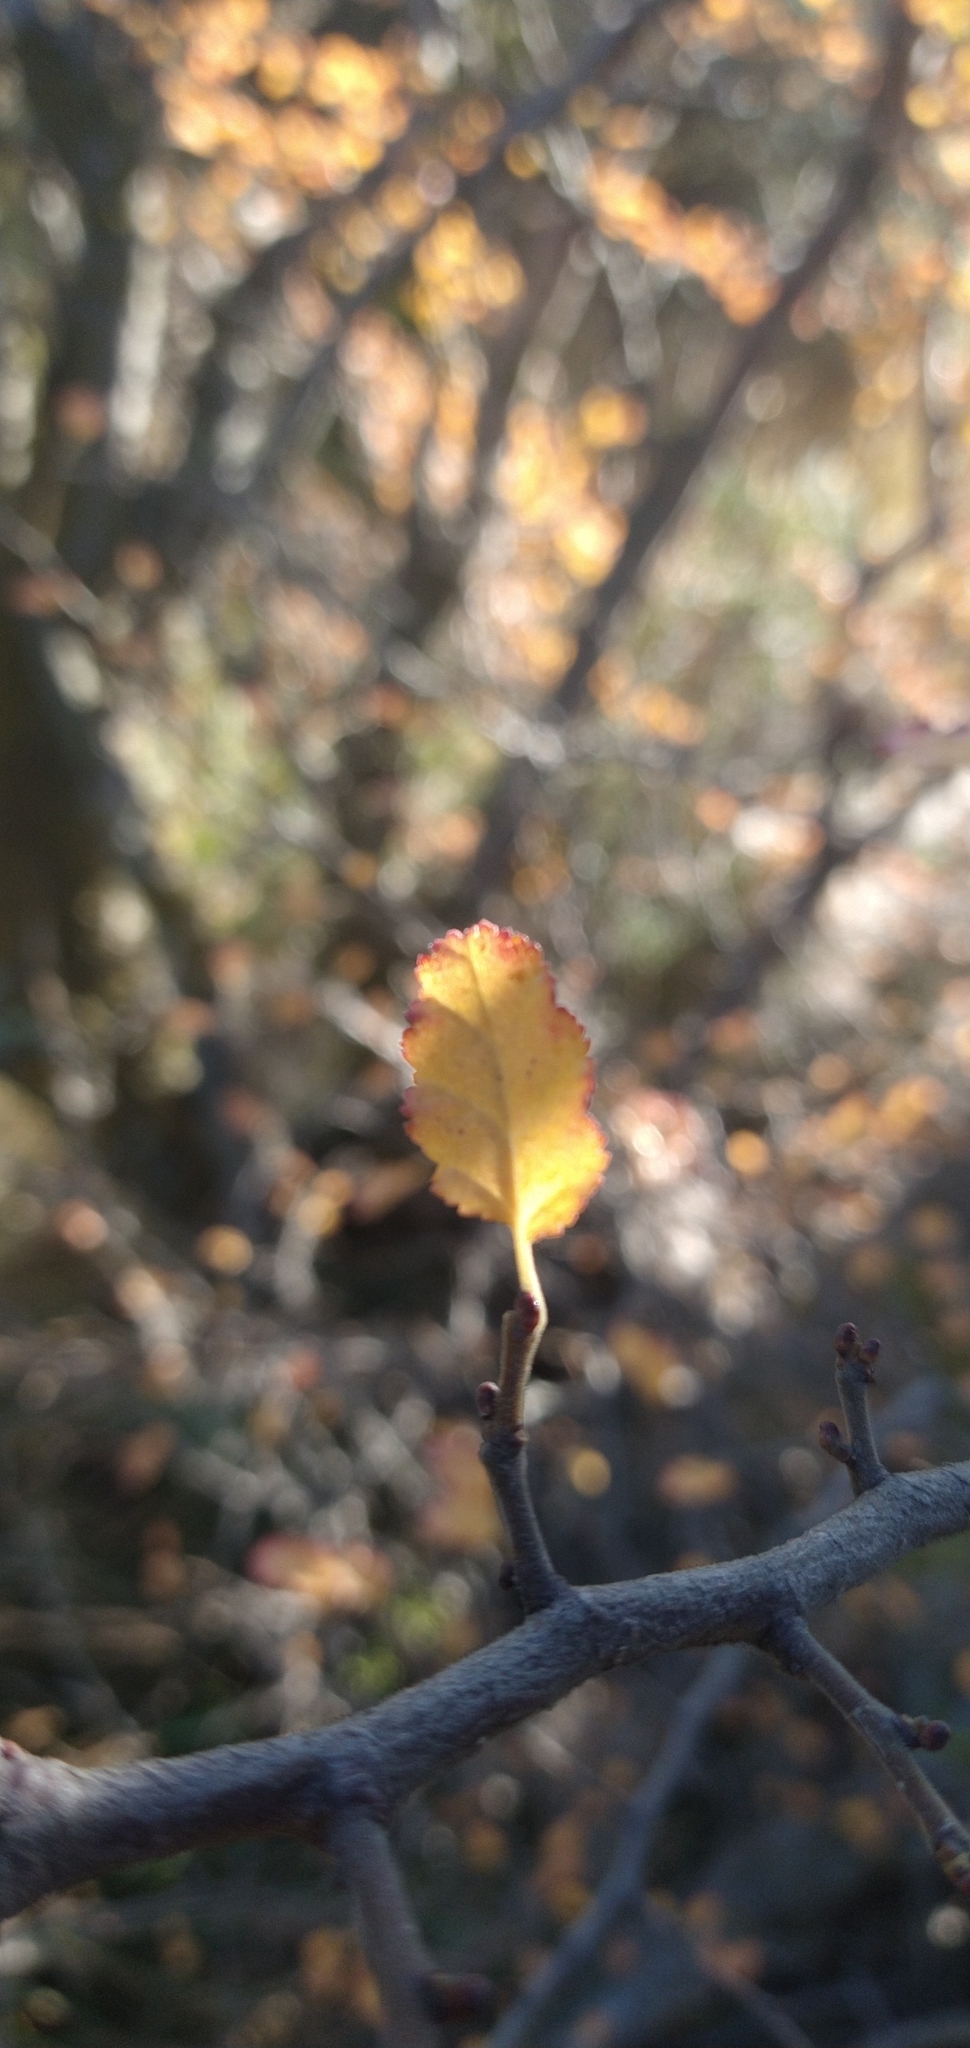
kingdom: Plantae
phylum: Tracheophyta
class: Magnoliopsida
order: Fagales
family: Nothofagaceae
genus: Nothofagus
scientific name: Nothofagus antarctica
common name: Antarctic beech
